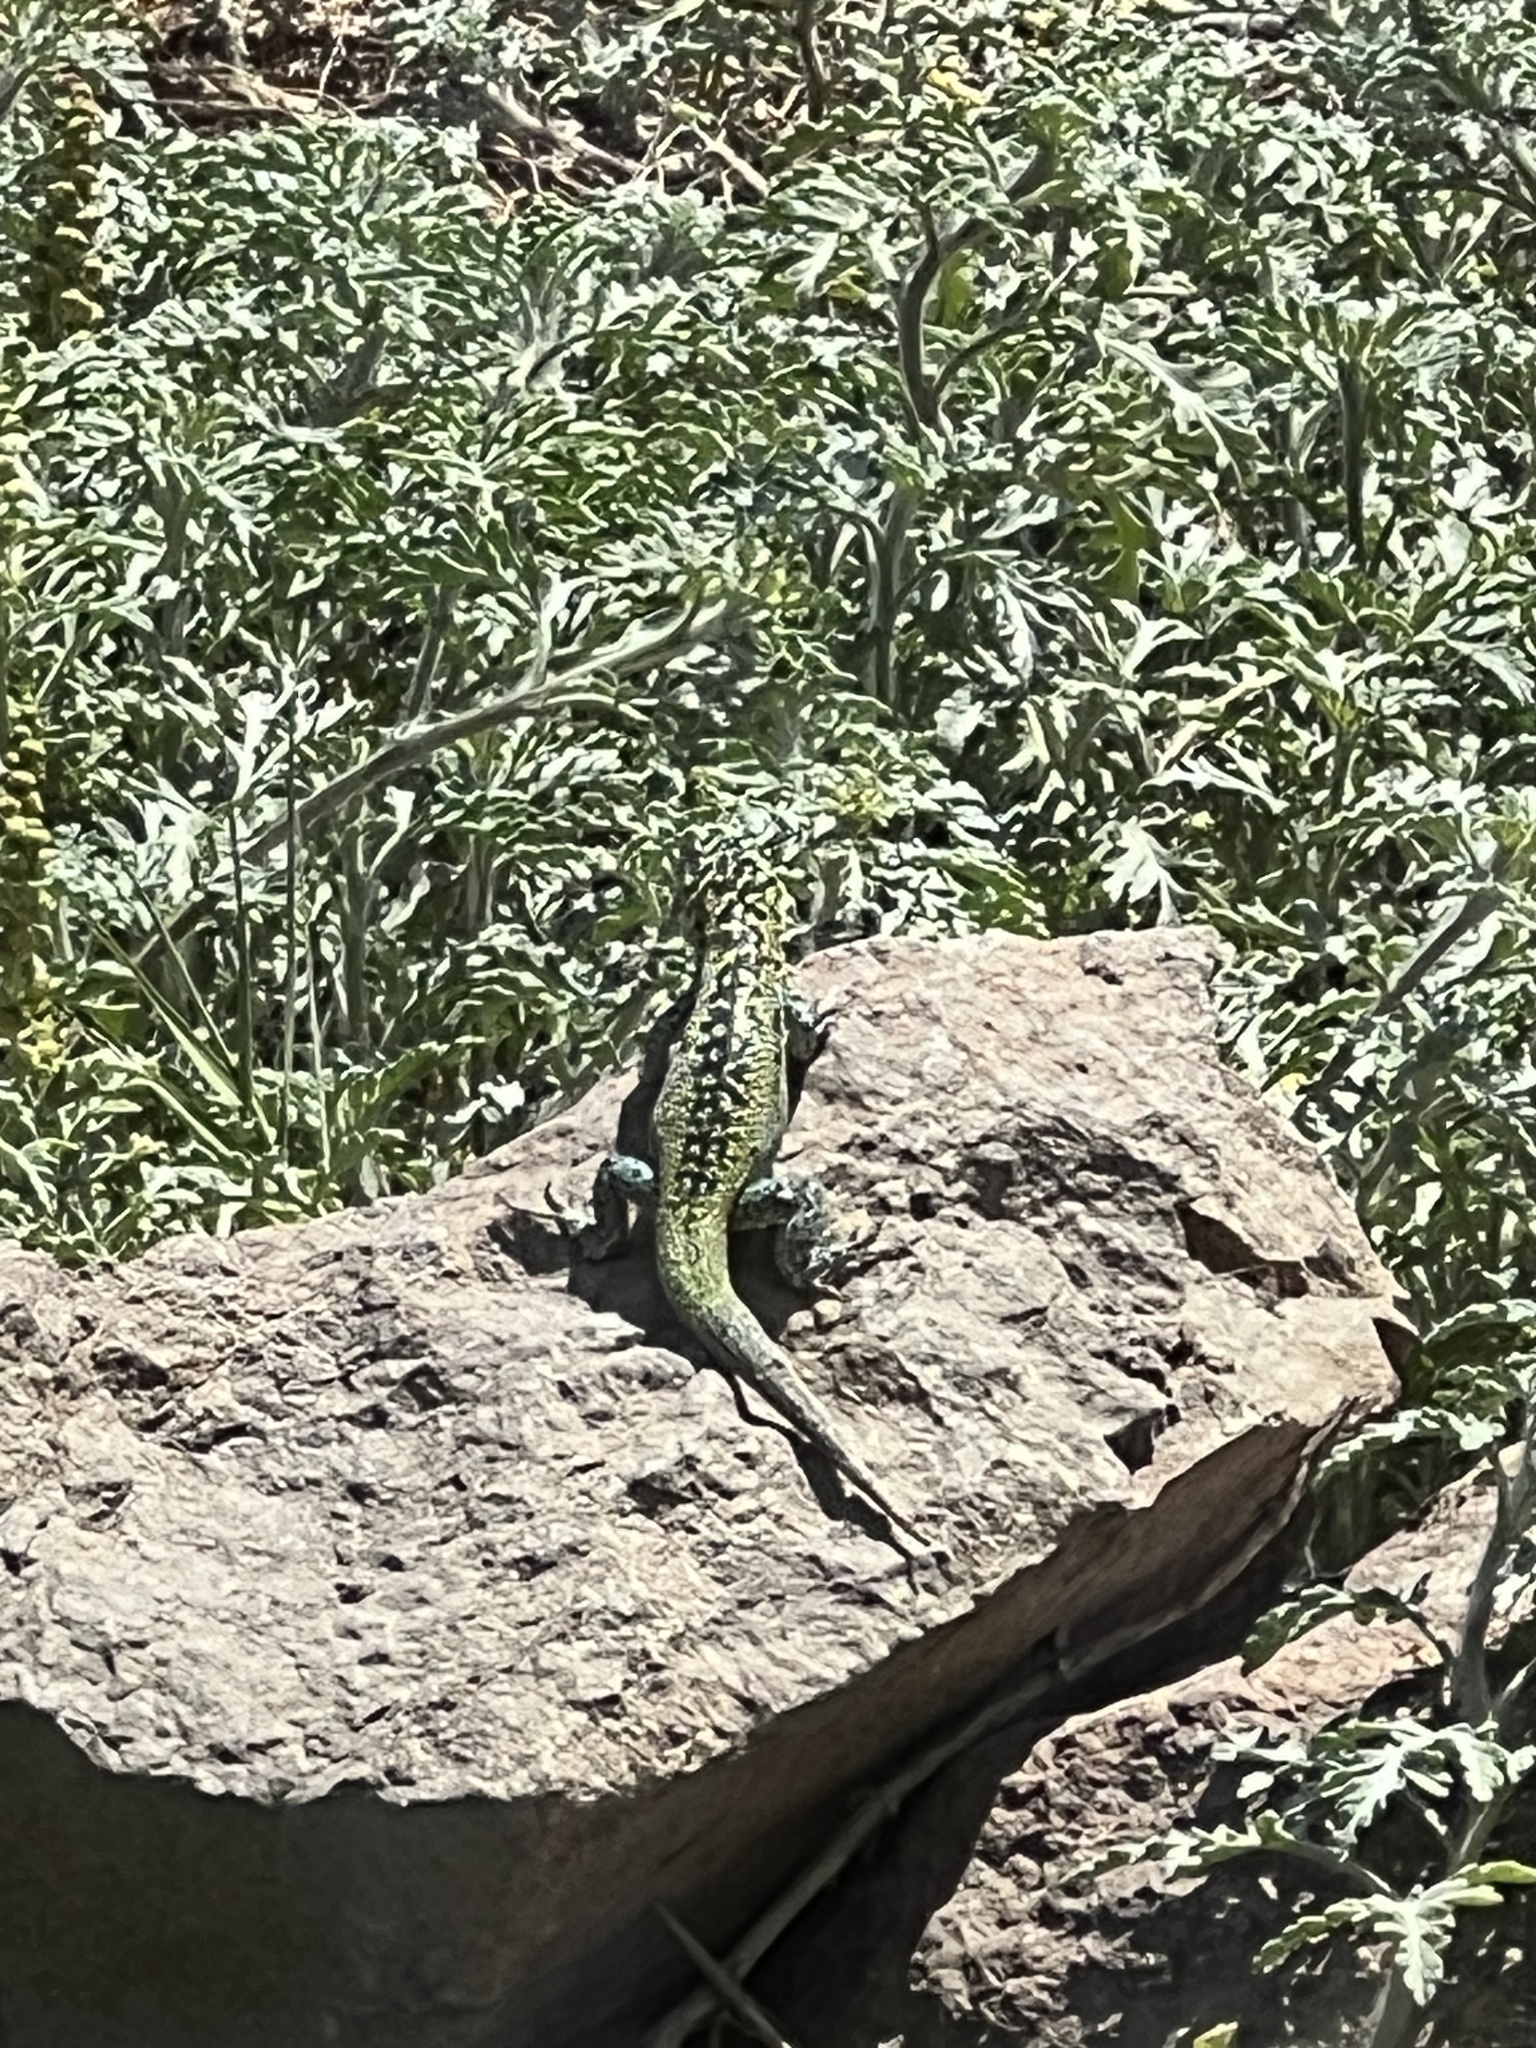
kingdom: Animalia
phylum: Chordata
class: Squamata
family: Liolaemidae
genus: Liolaemus
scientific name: Liolaemus zapallarensis
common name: Zapallaren tree iguana
